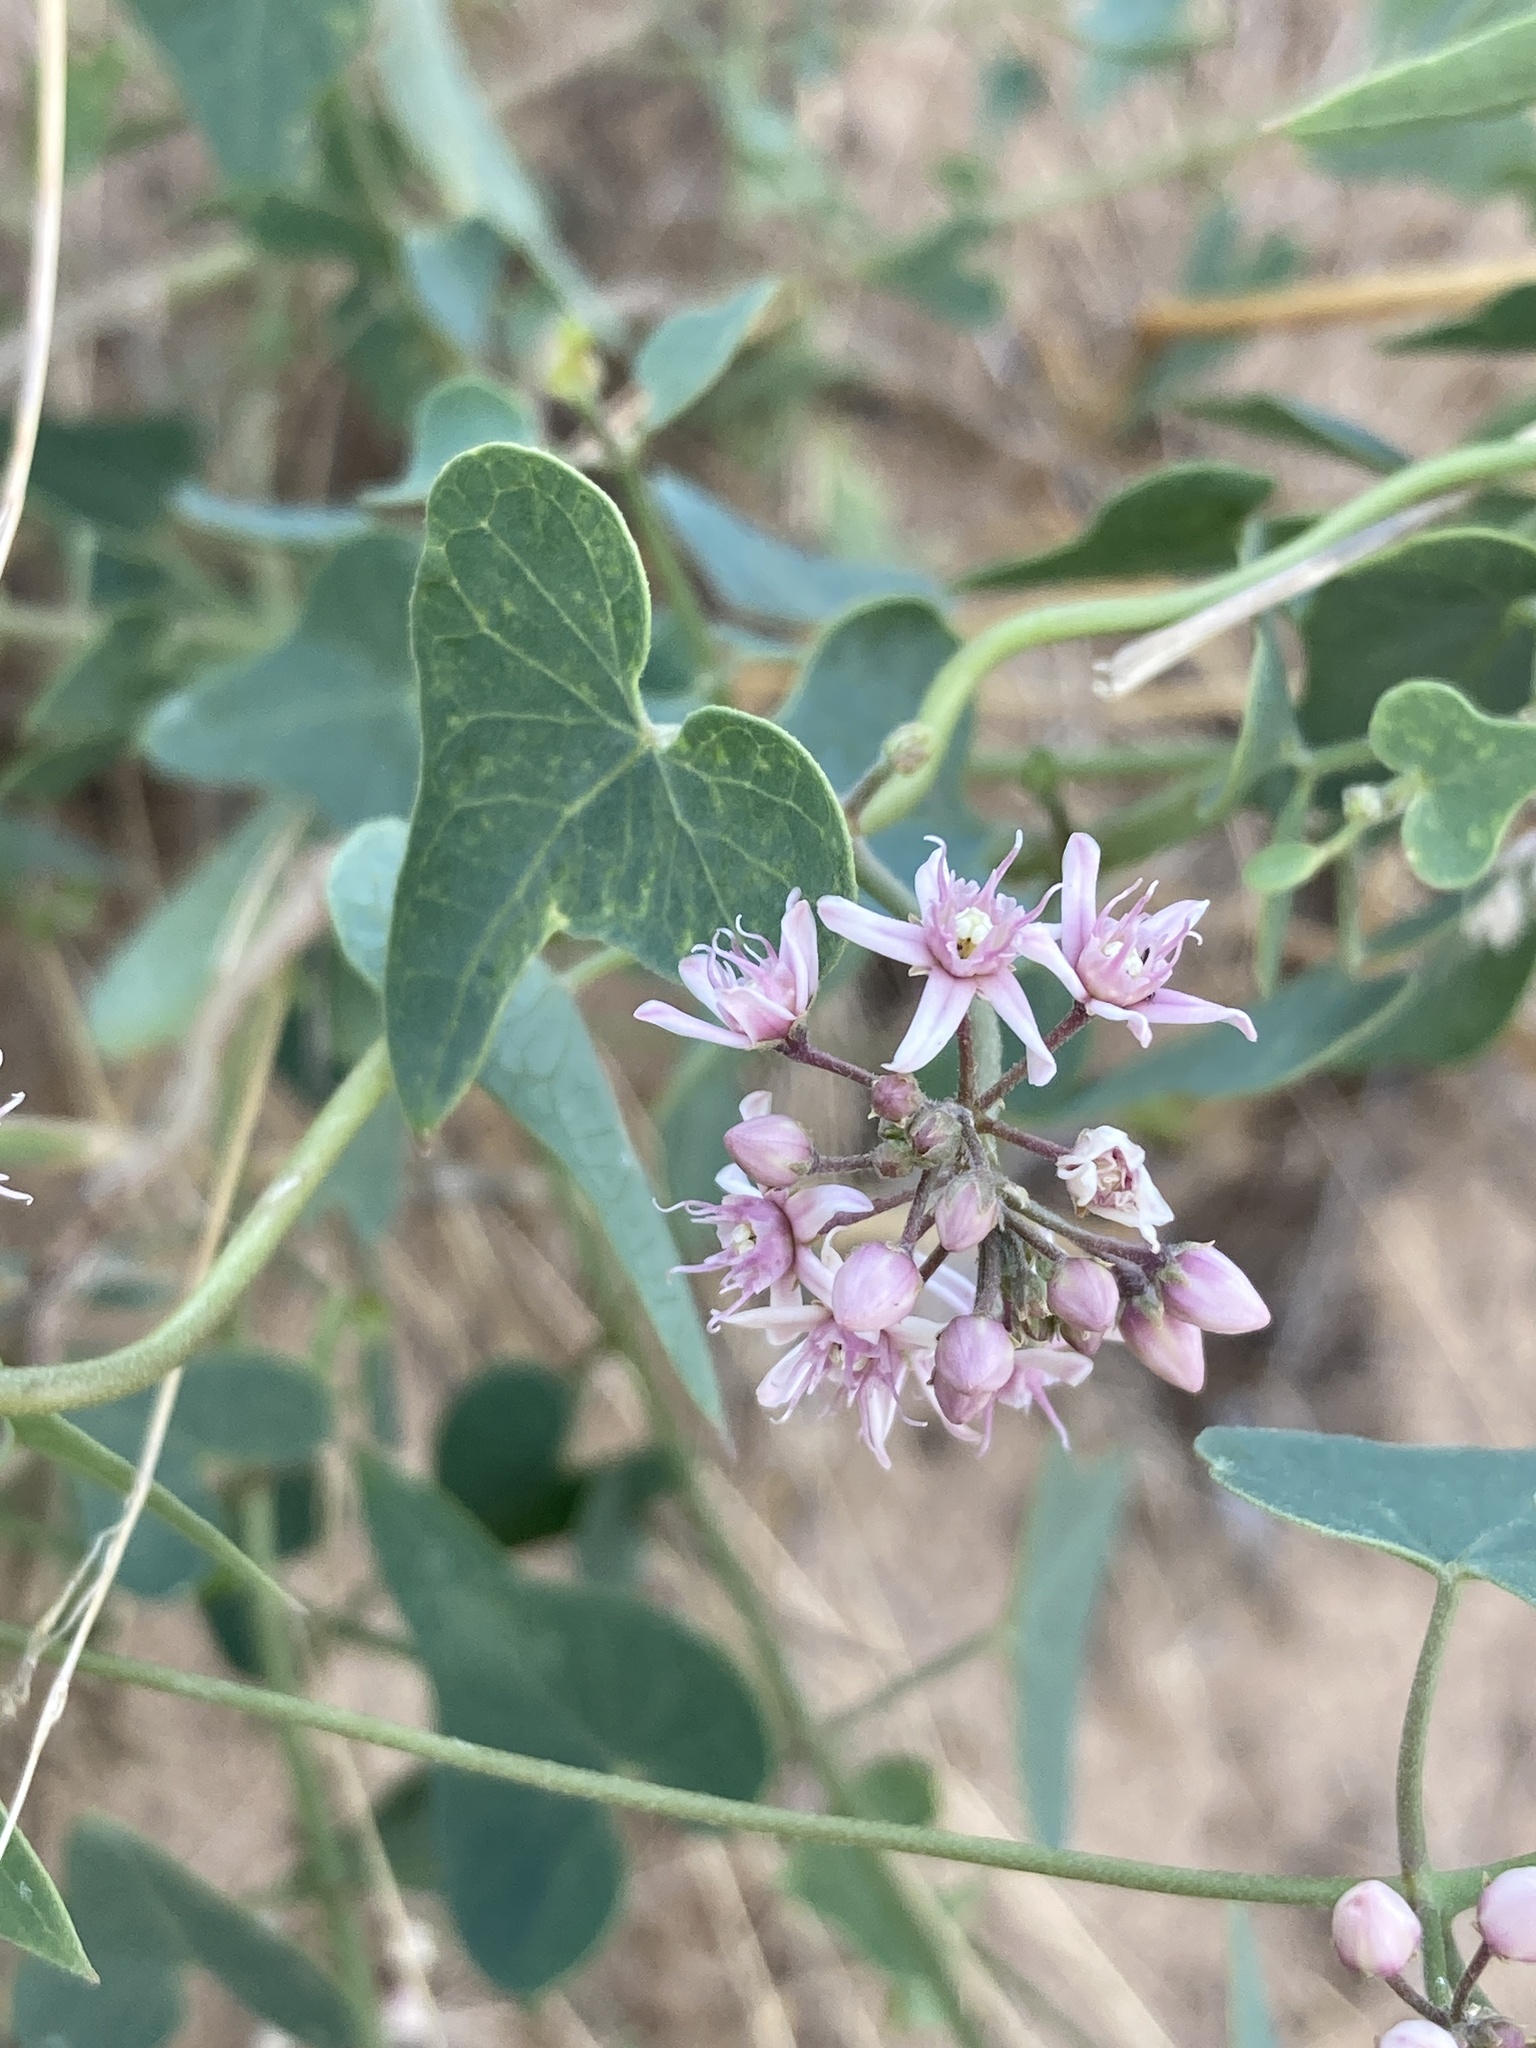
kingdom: Plantae
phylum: Tracheophyta
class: Magnoliopsida
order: Gentianales
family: Apocynaceae
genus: Cynanchum
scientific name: Cynanchum acutum
